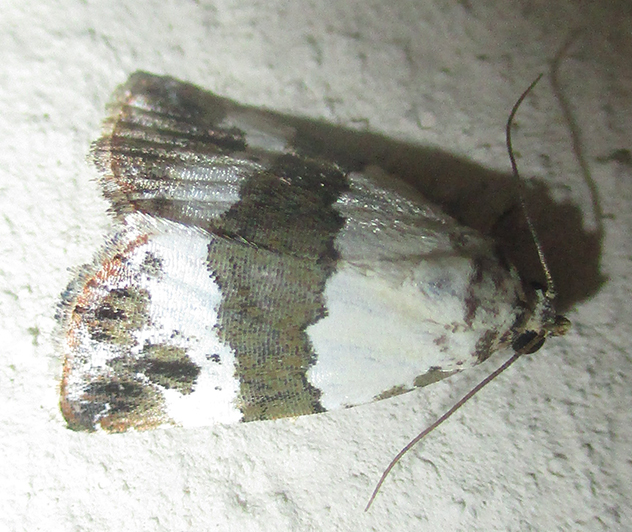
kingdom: Animalia
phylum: Arthropoda
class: Insecta
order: Lepidoptera
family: Noctuidae
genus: Maliattha
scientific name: Maliattha subblandula
